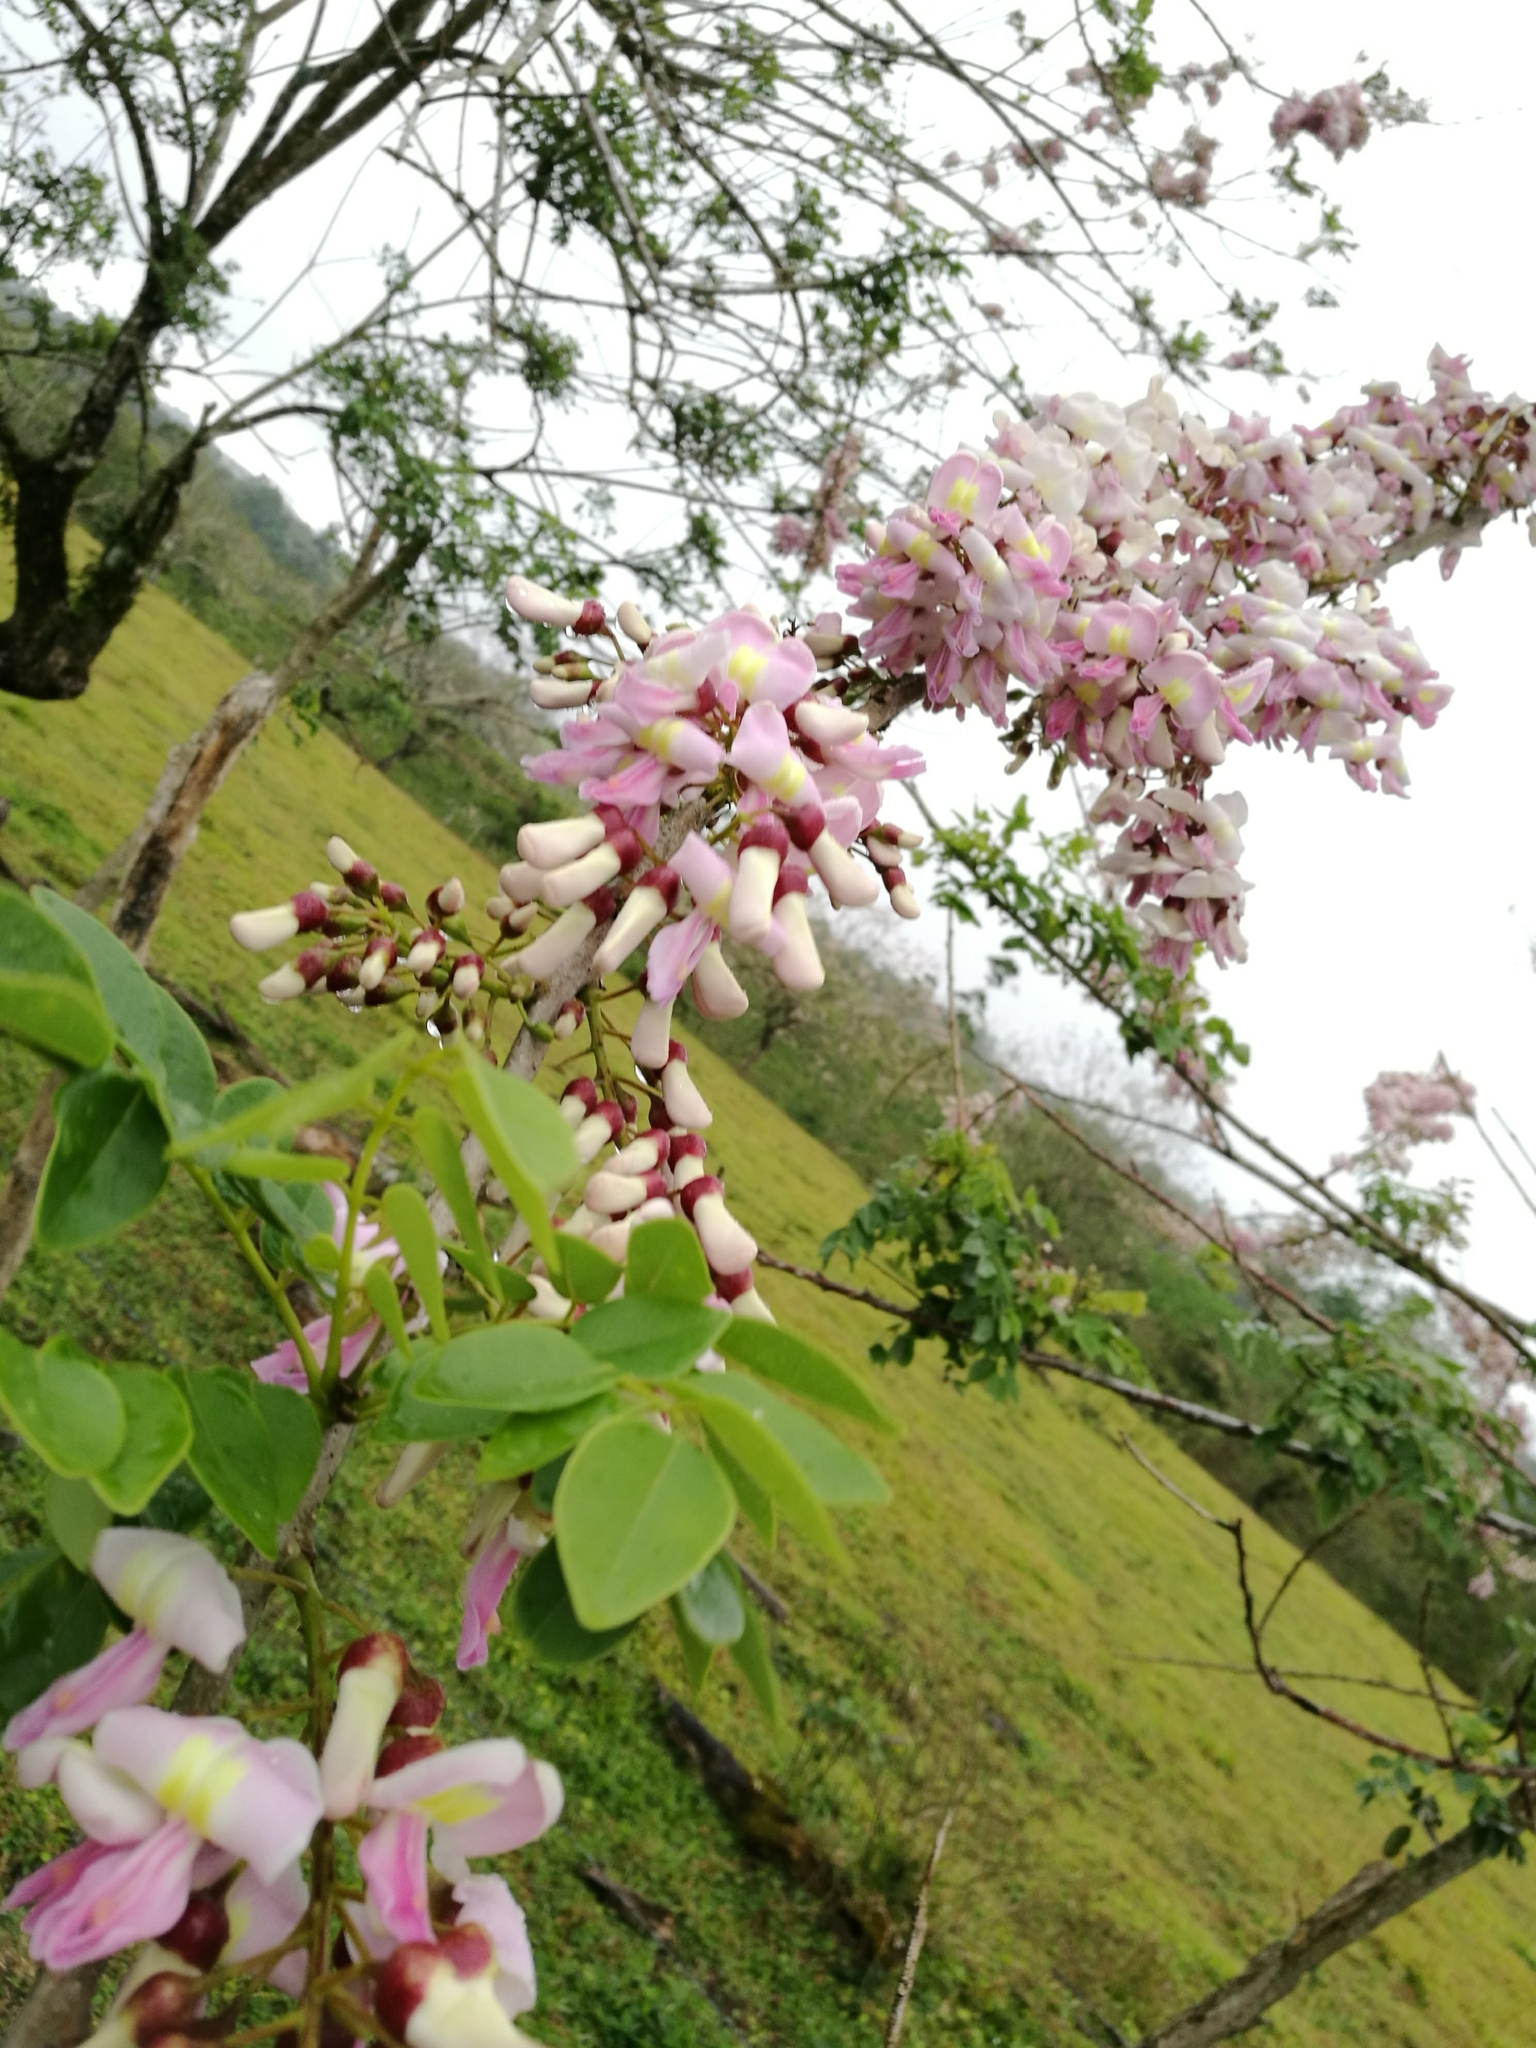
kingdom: Plantae
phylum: Tracheophyta
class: Magnoliopsida
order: Fabales
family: Fabaceae
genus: Gliricidia
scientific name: Gliricidia sepium
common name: Quickstick
